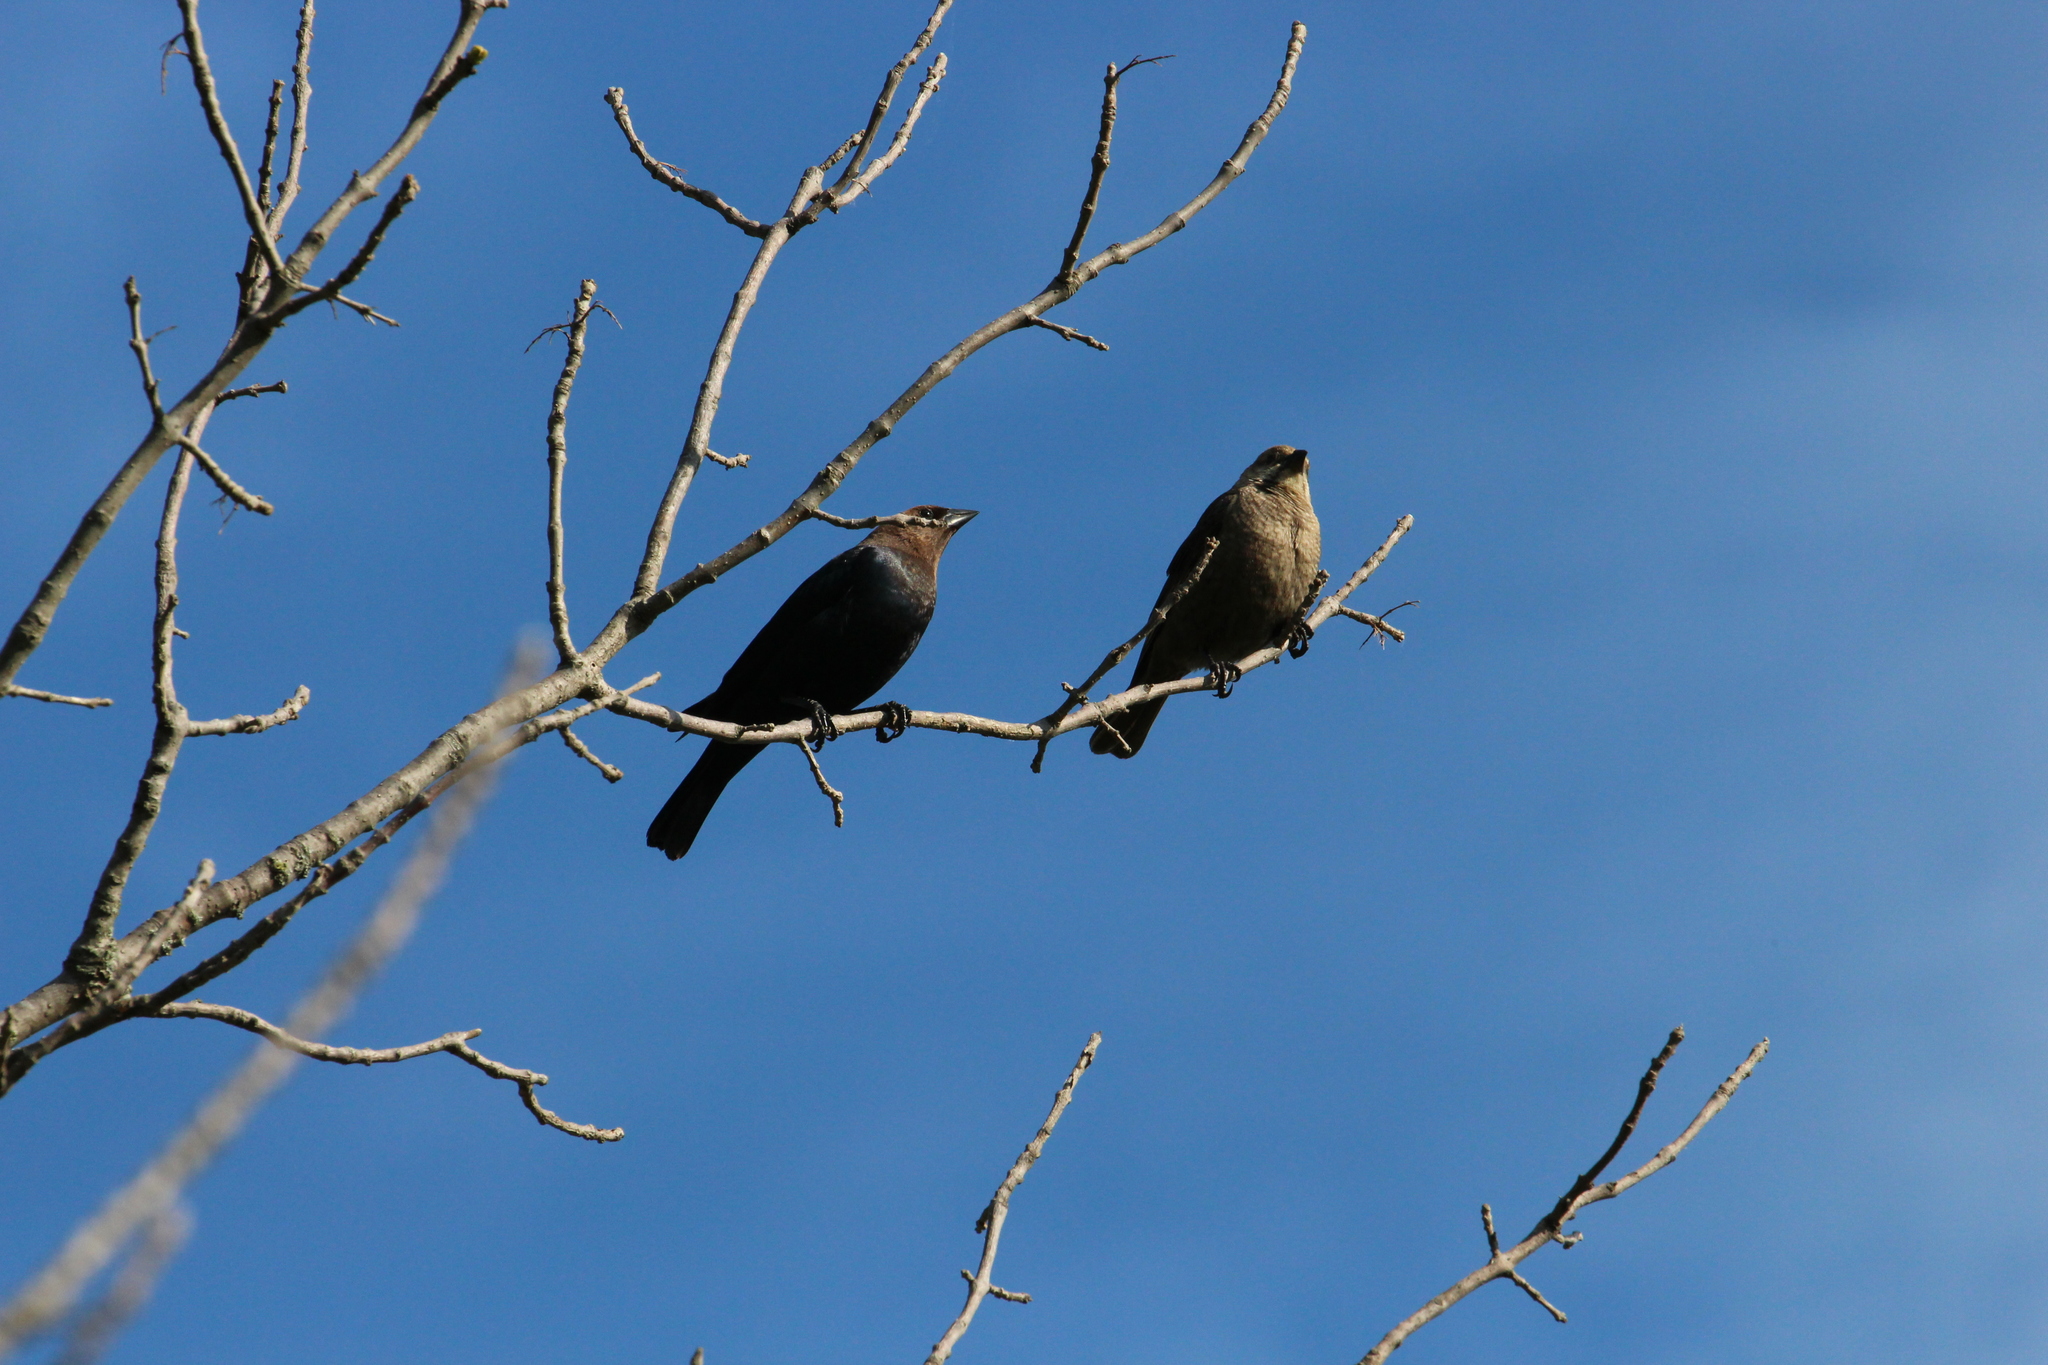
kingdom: Animalia
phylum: Chordata
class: Aves
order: Passeriformes
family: Icteridae
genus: Molothrus
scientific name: Molothrus ater
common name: Brown-headed cowbird
